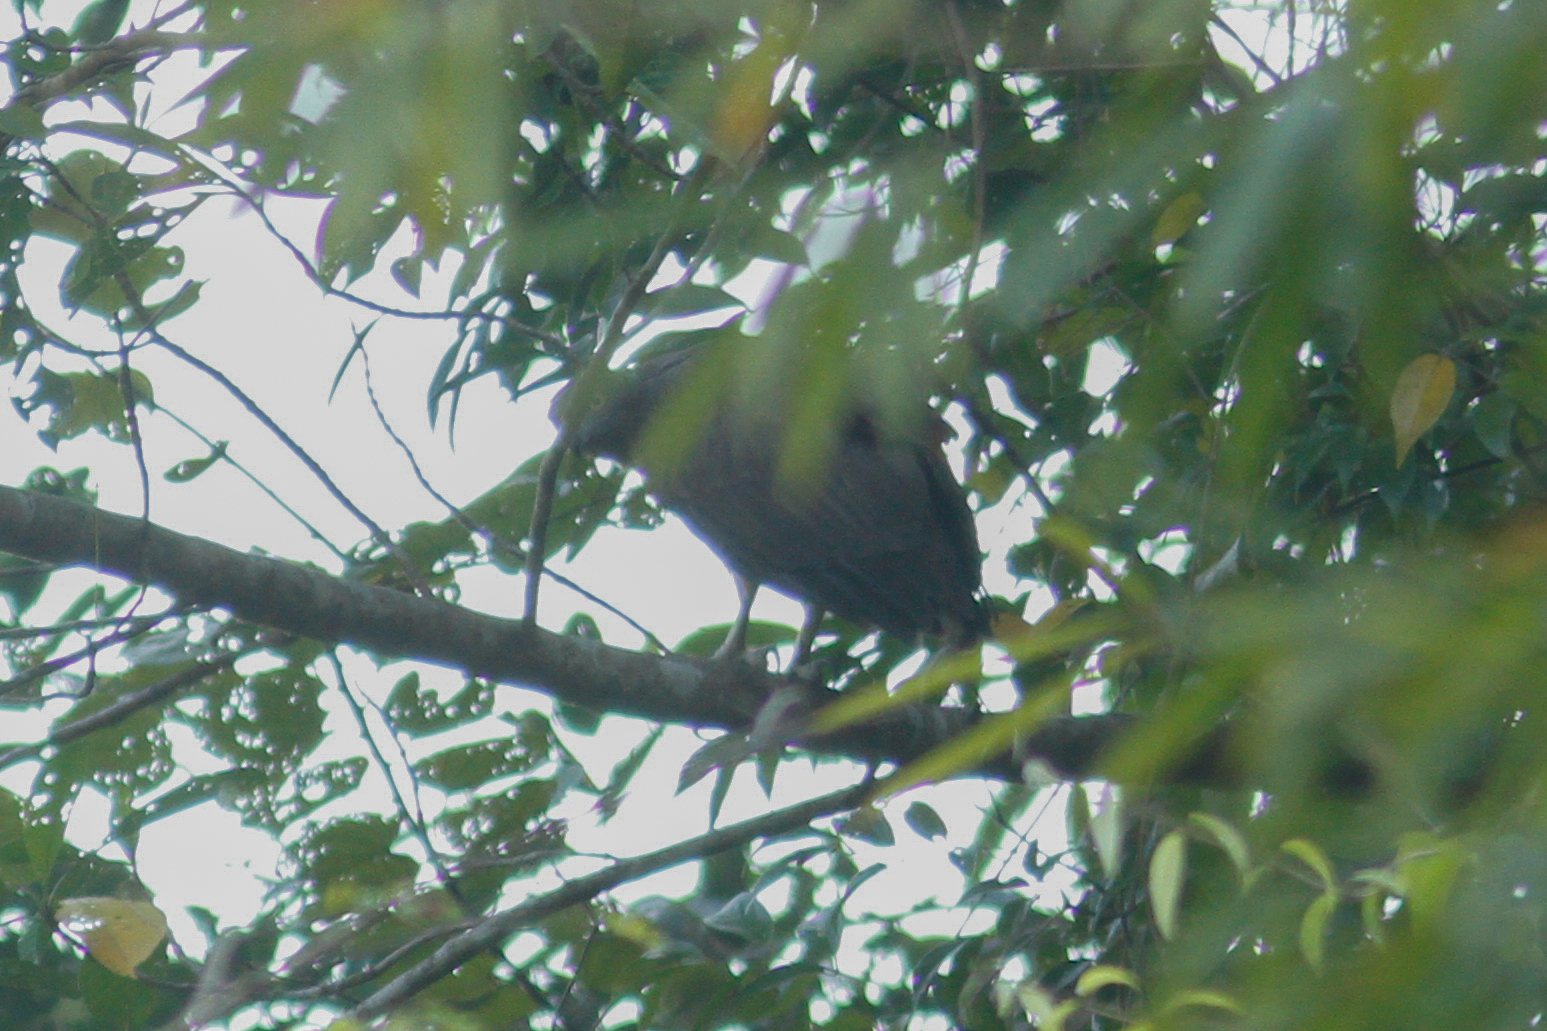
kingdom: Animalia
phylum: Chordata
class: Aves
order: Accipitriformes
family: Accipitridae
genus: Icthyophaga
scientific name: Icthyophaga humilis
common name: Lesser fish-eagle
